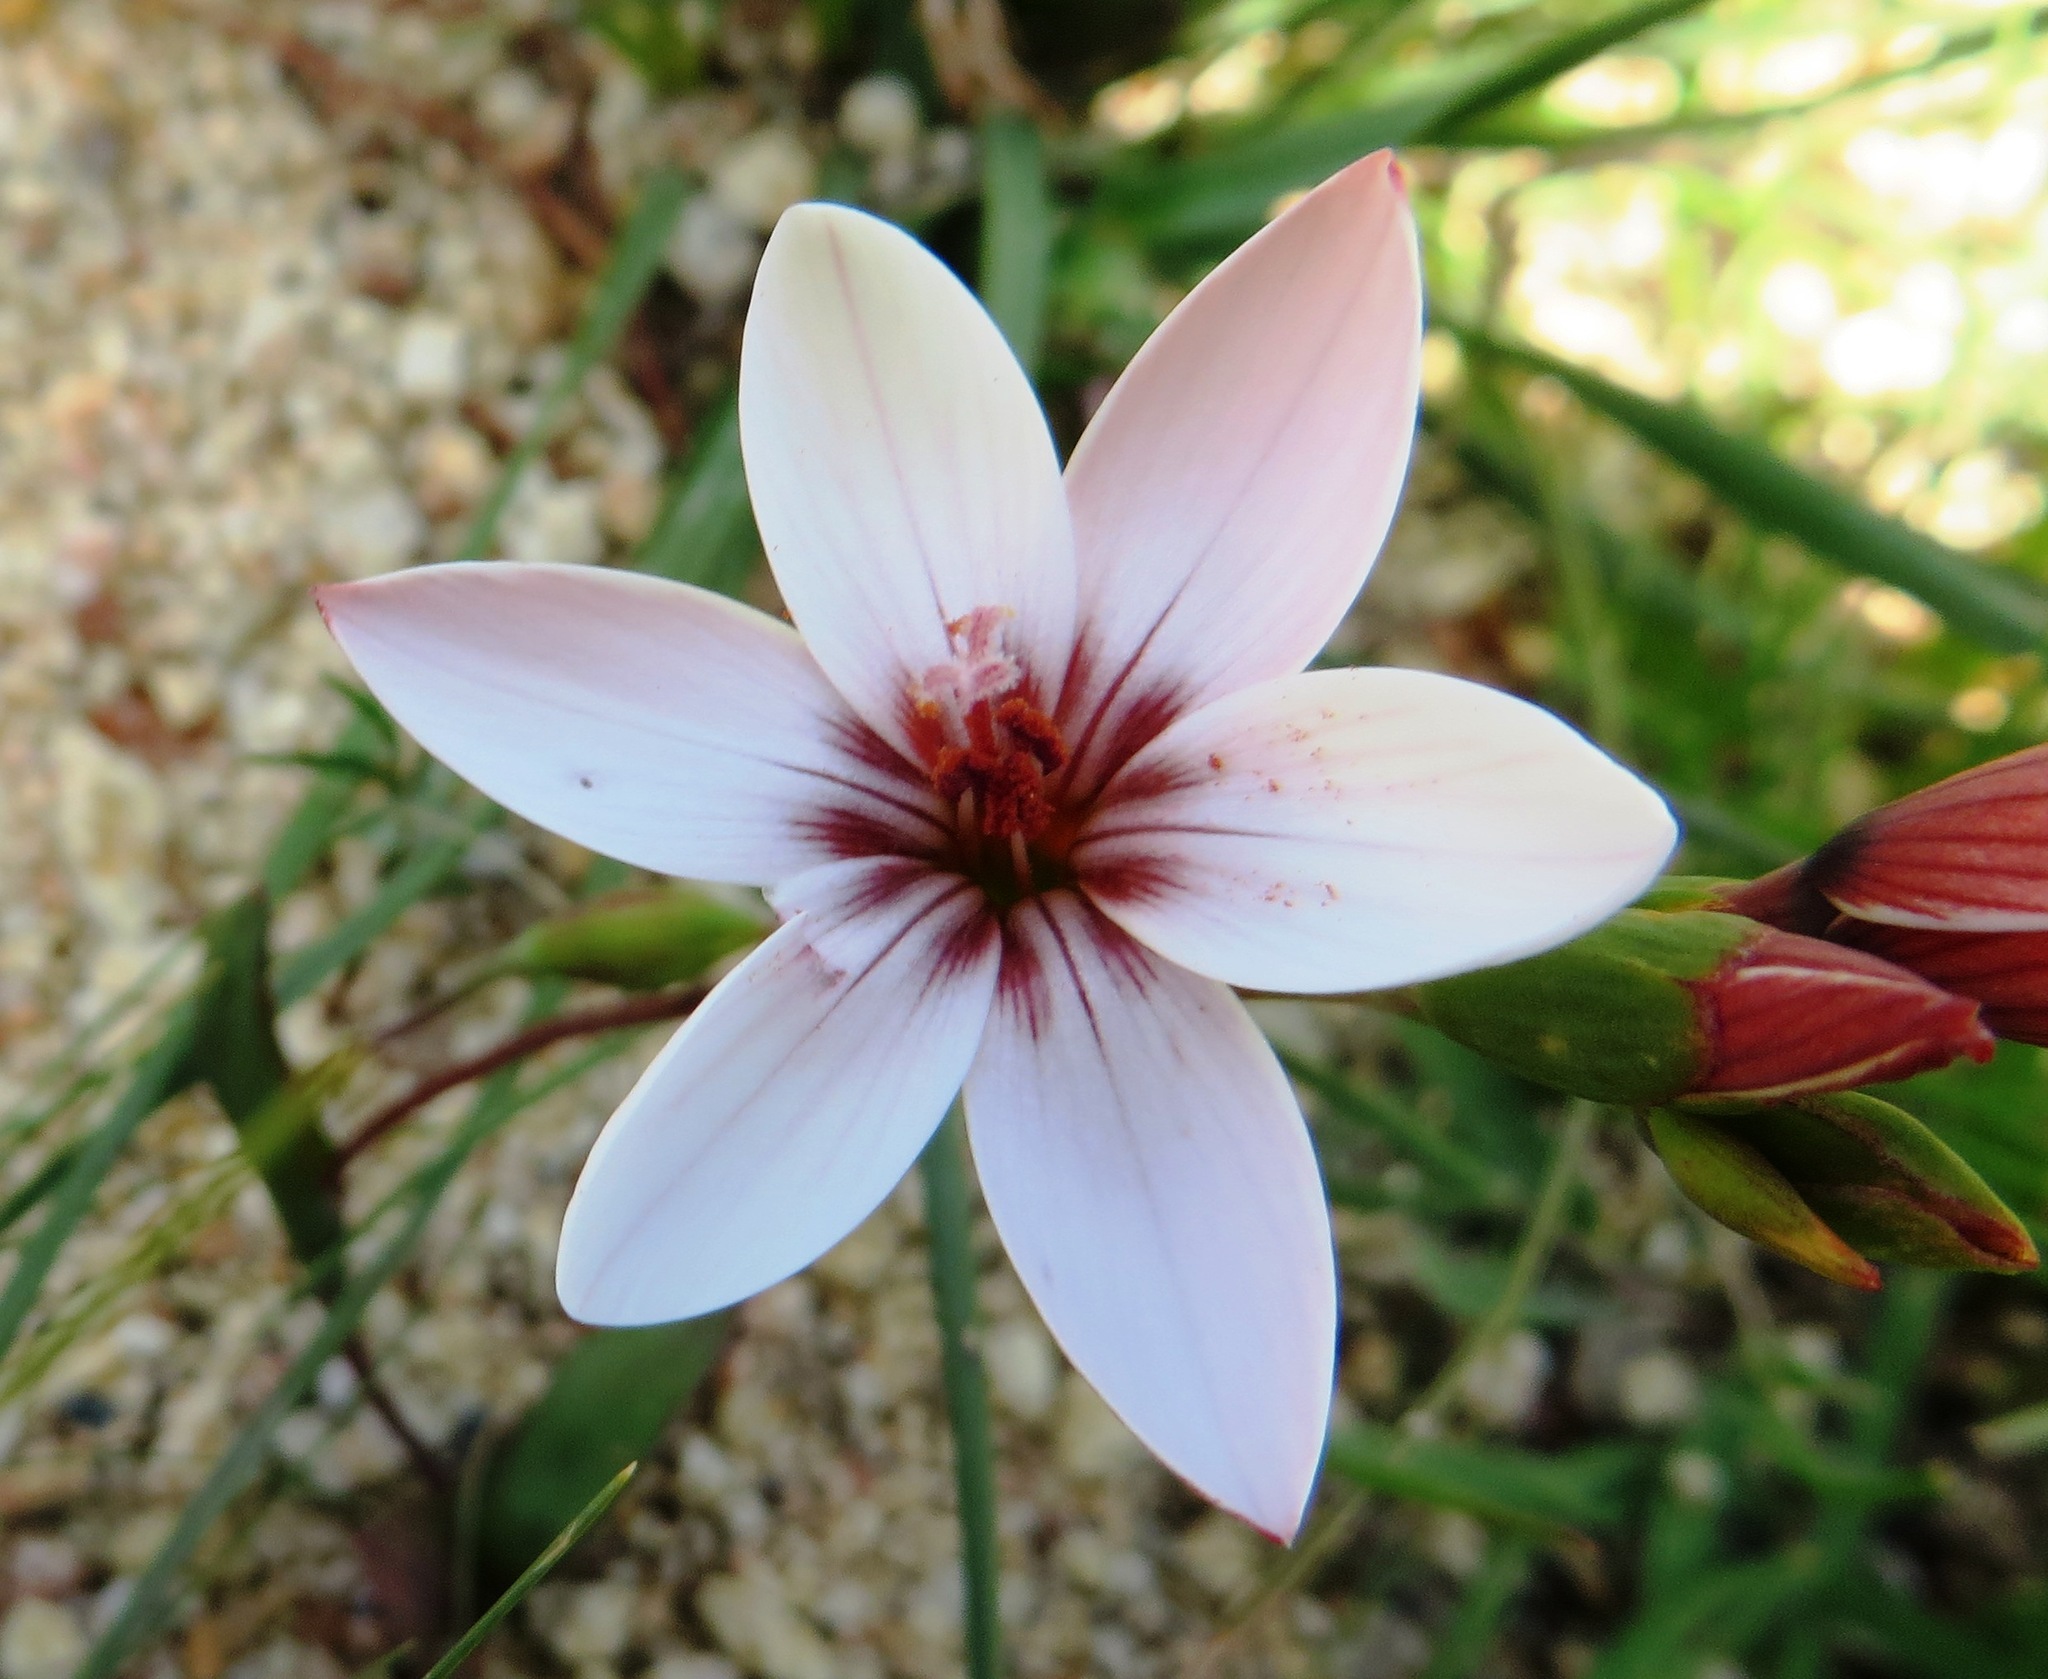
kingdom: Plantae
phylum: Tracheophyta
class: Liliopsida
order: Asparagales
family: Iridaceae
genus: Geissorhiza
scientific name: Geissorhiza ovata
